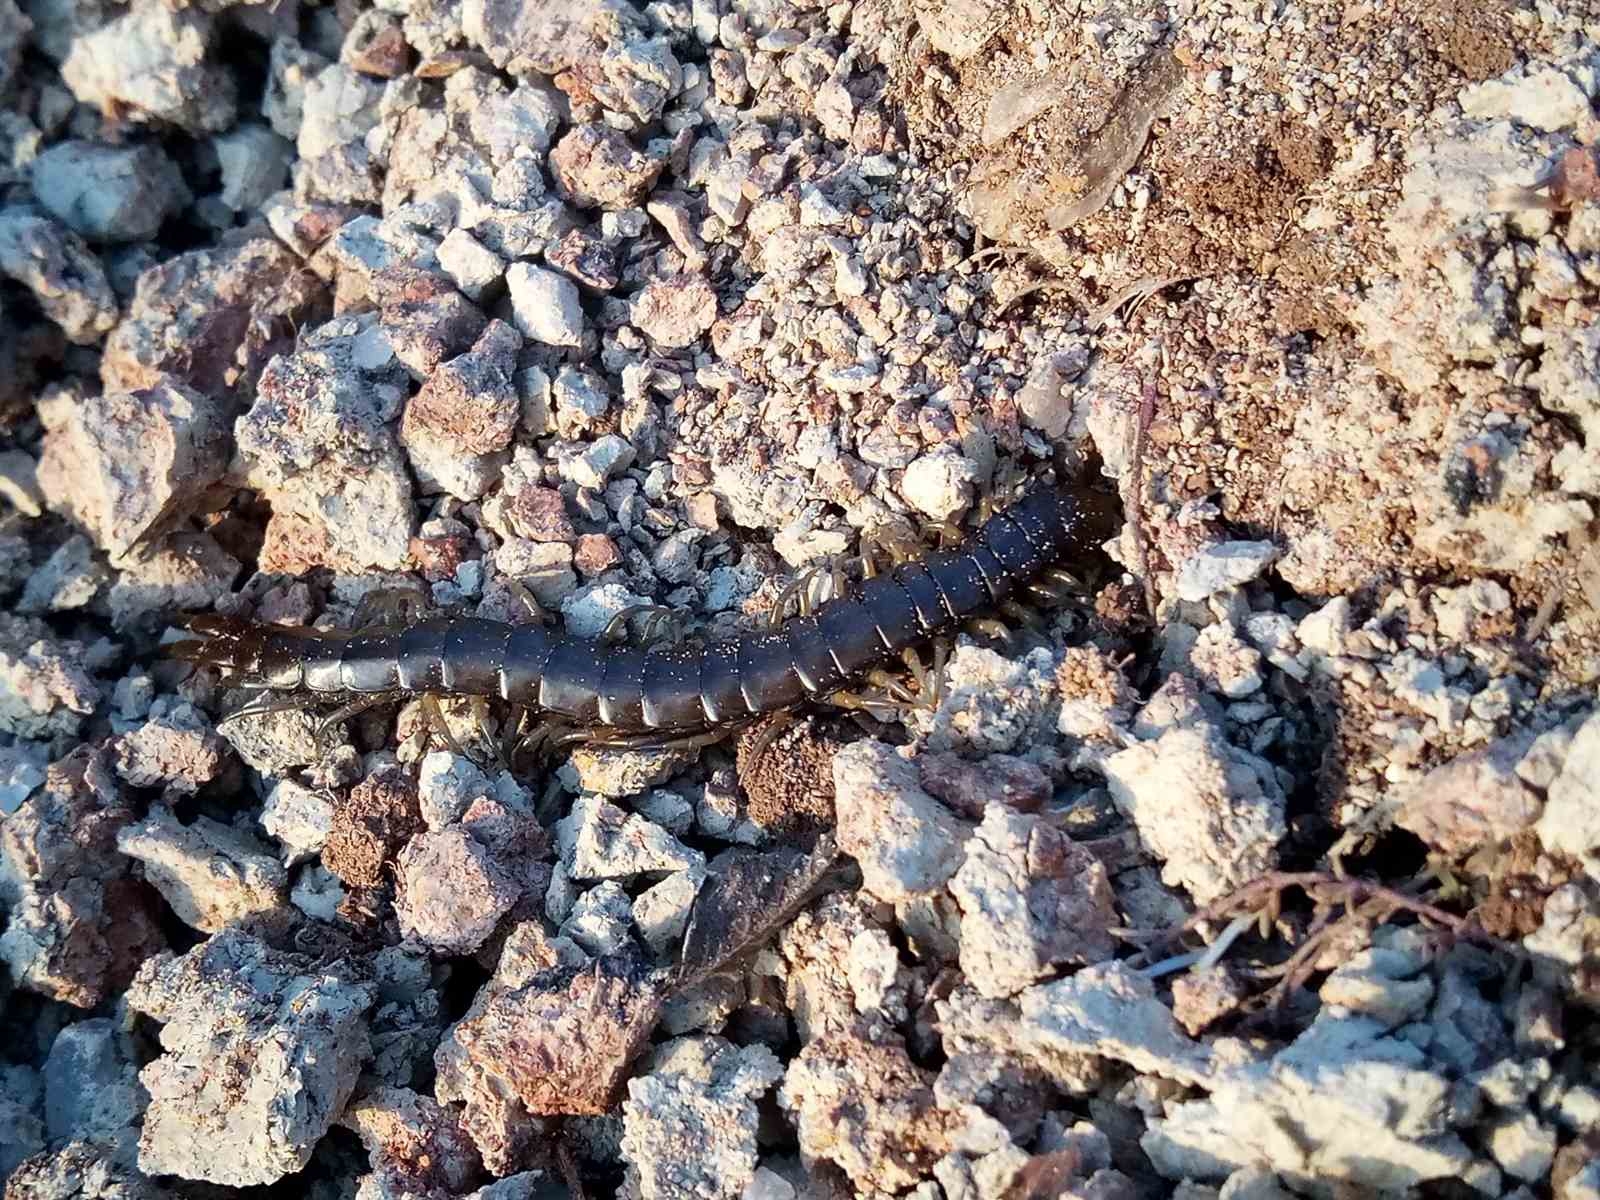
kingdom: Animalia
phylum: Arthropoda
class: Chilopoda
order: Scolopendromorpha
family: Scolopendridae
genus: Scolopendra
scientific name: Scolopendra cingulata
